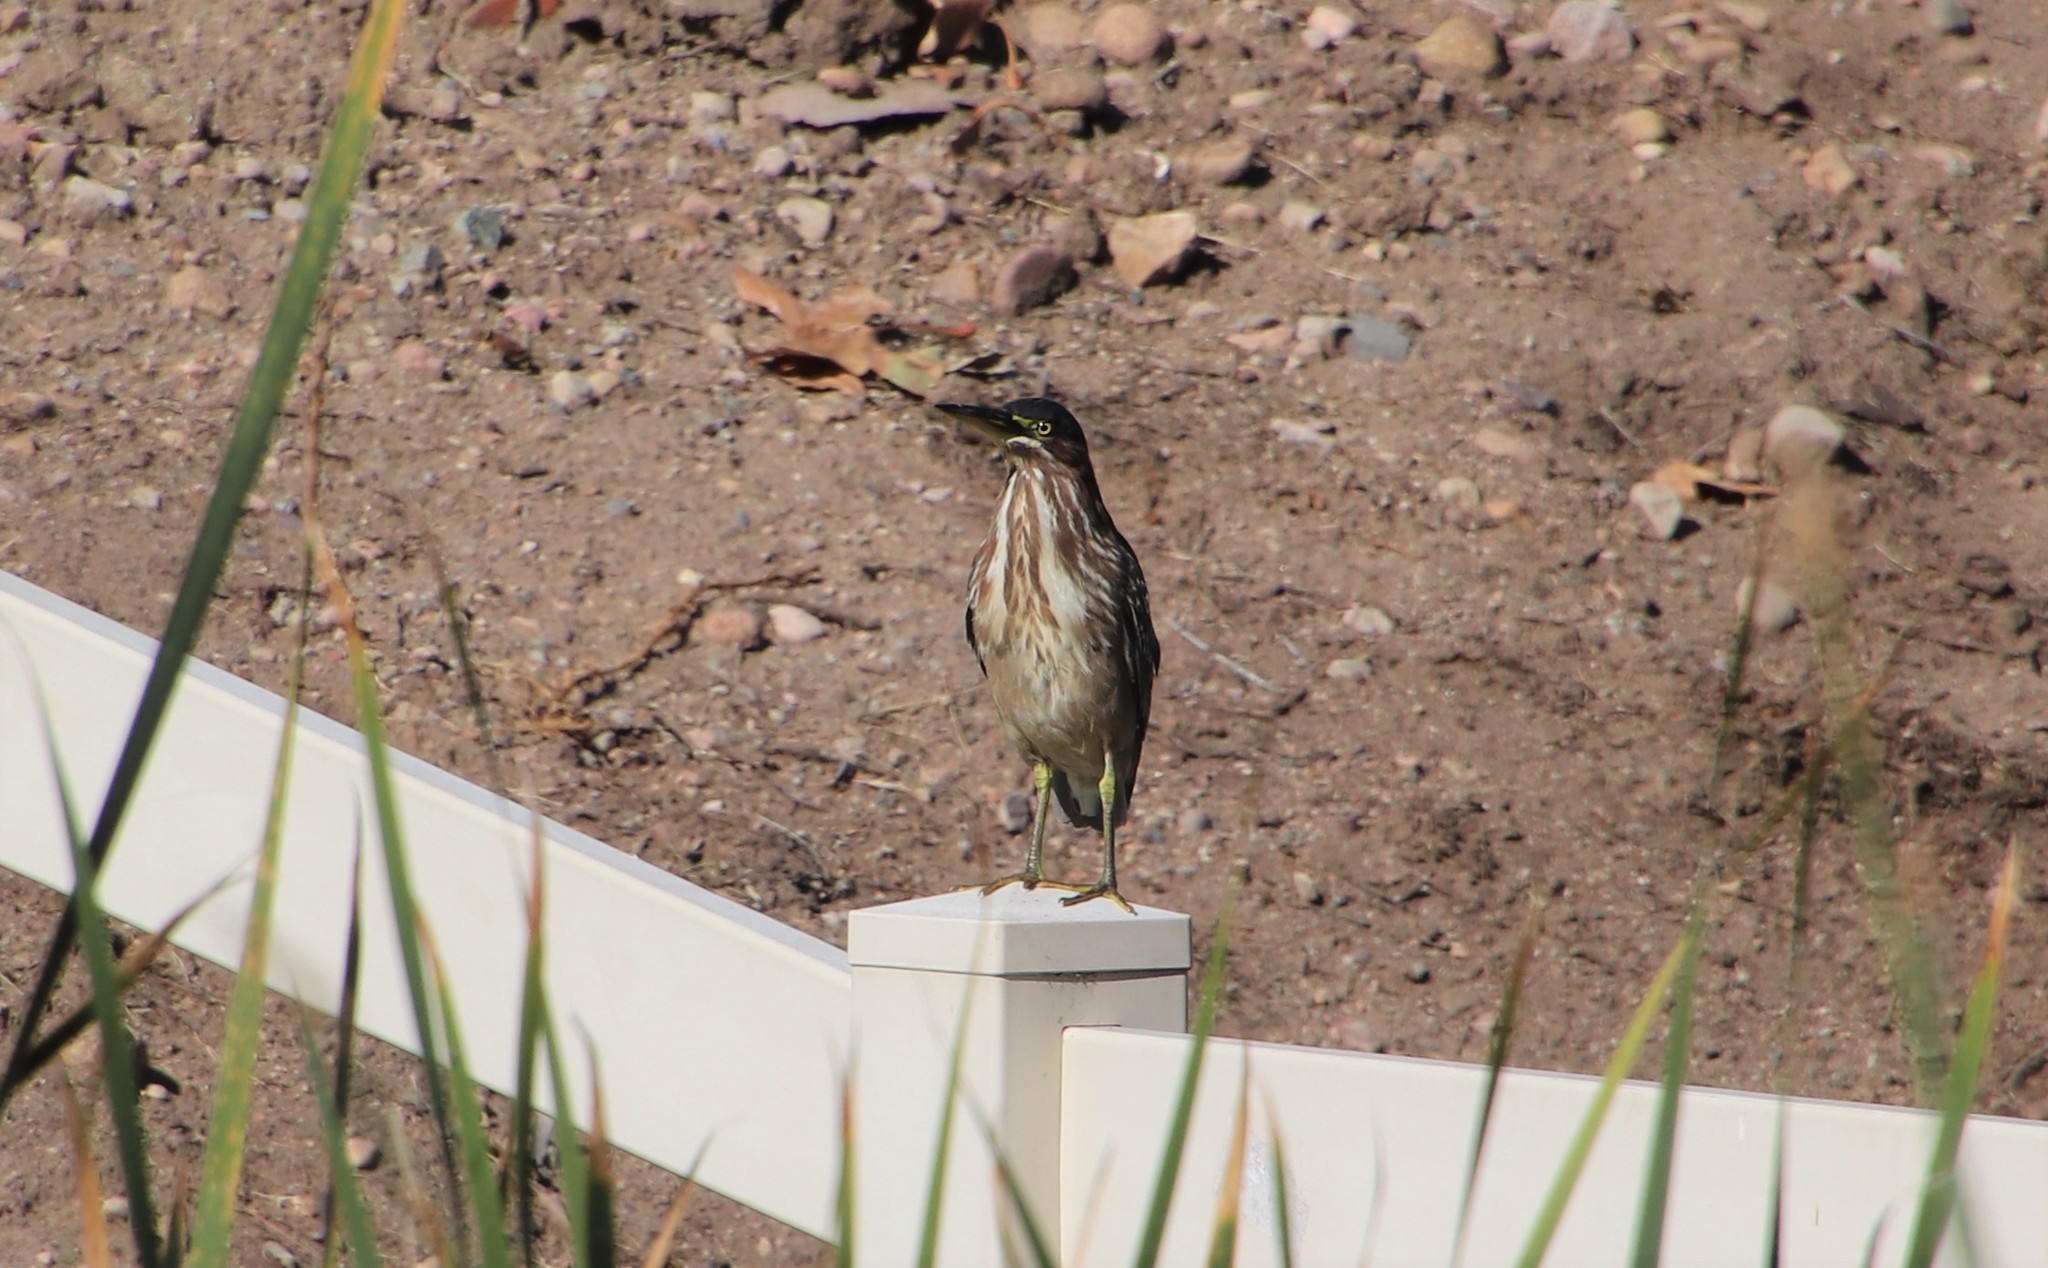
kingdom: Animalia
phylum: Chordata
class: Aves
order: Pelecaniformes
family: Ardeidae
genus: Butorides
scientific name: Butorides virescens
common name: Green heron
